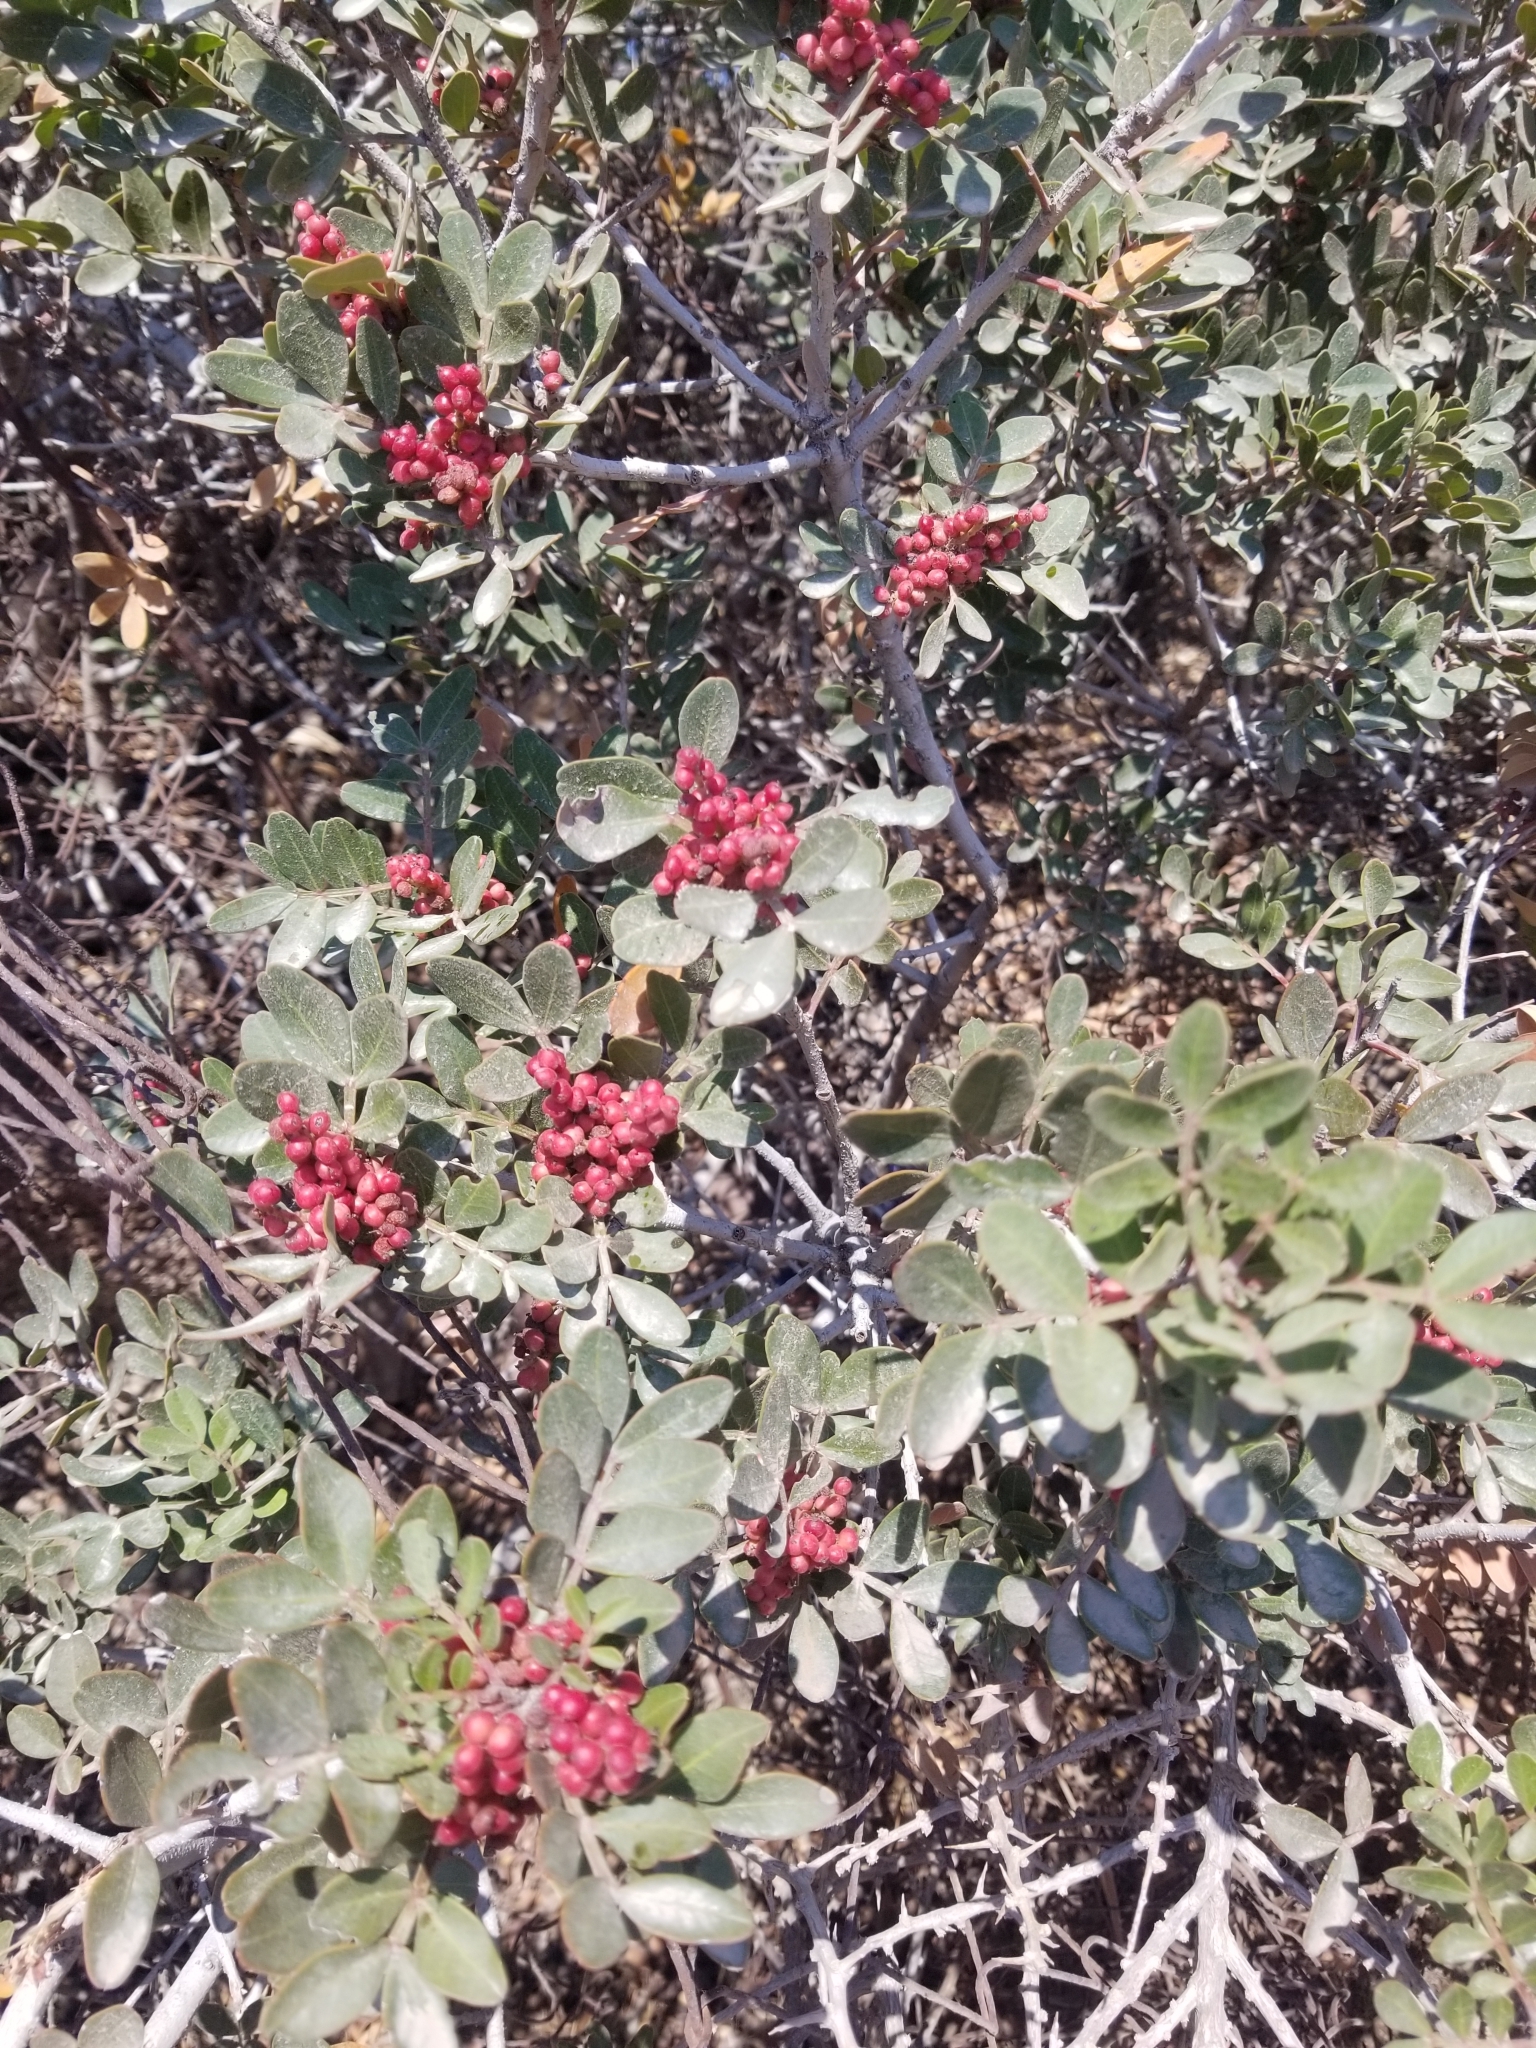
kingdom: Plantae
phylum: Tracheophyta
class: Magnoliopsida
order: Sapindales
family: Anacardiaceae
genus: Pistacia
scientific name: Pistacia lentiscus
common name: Lentisk
